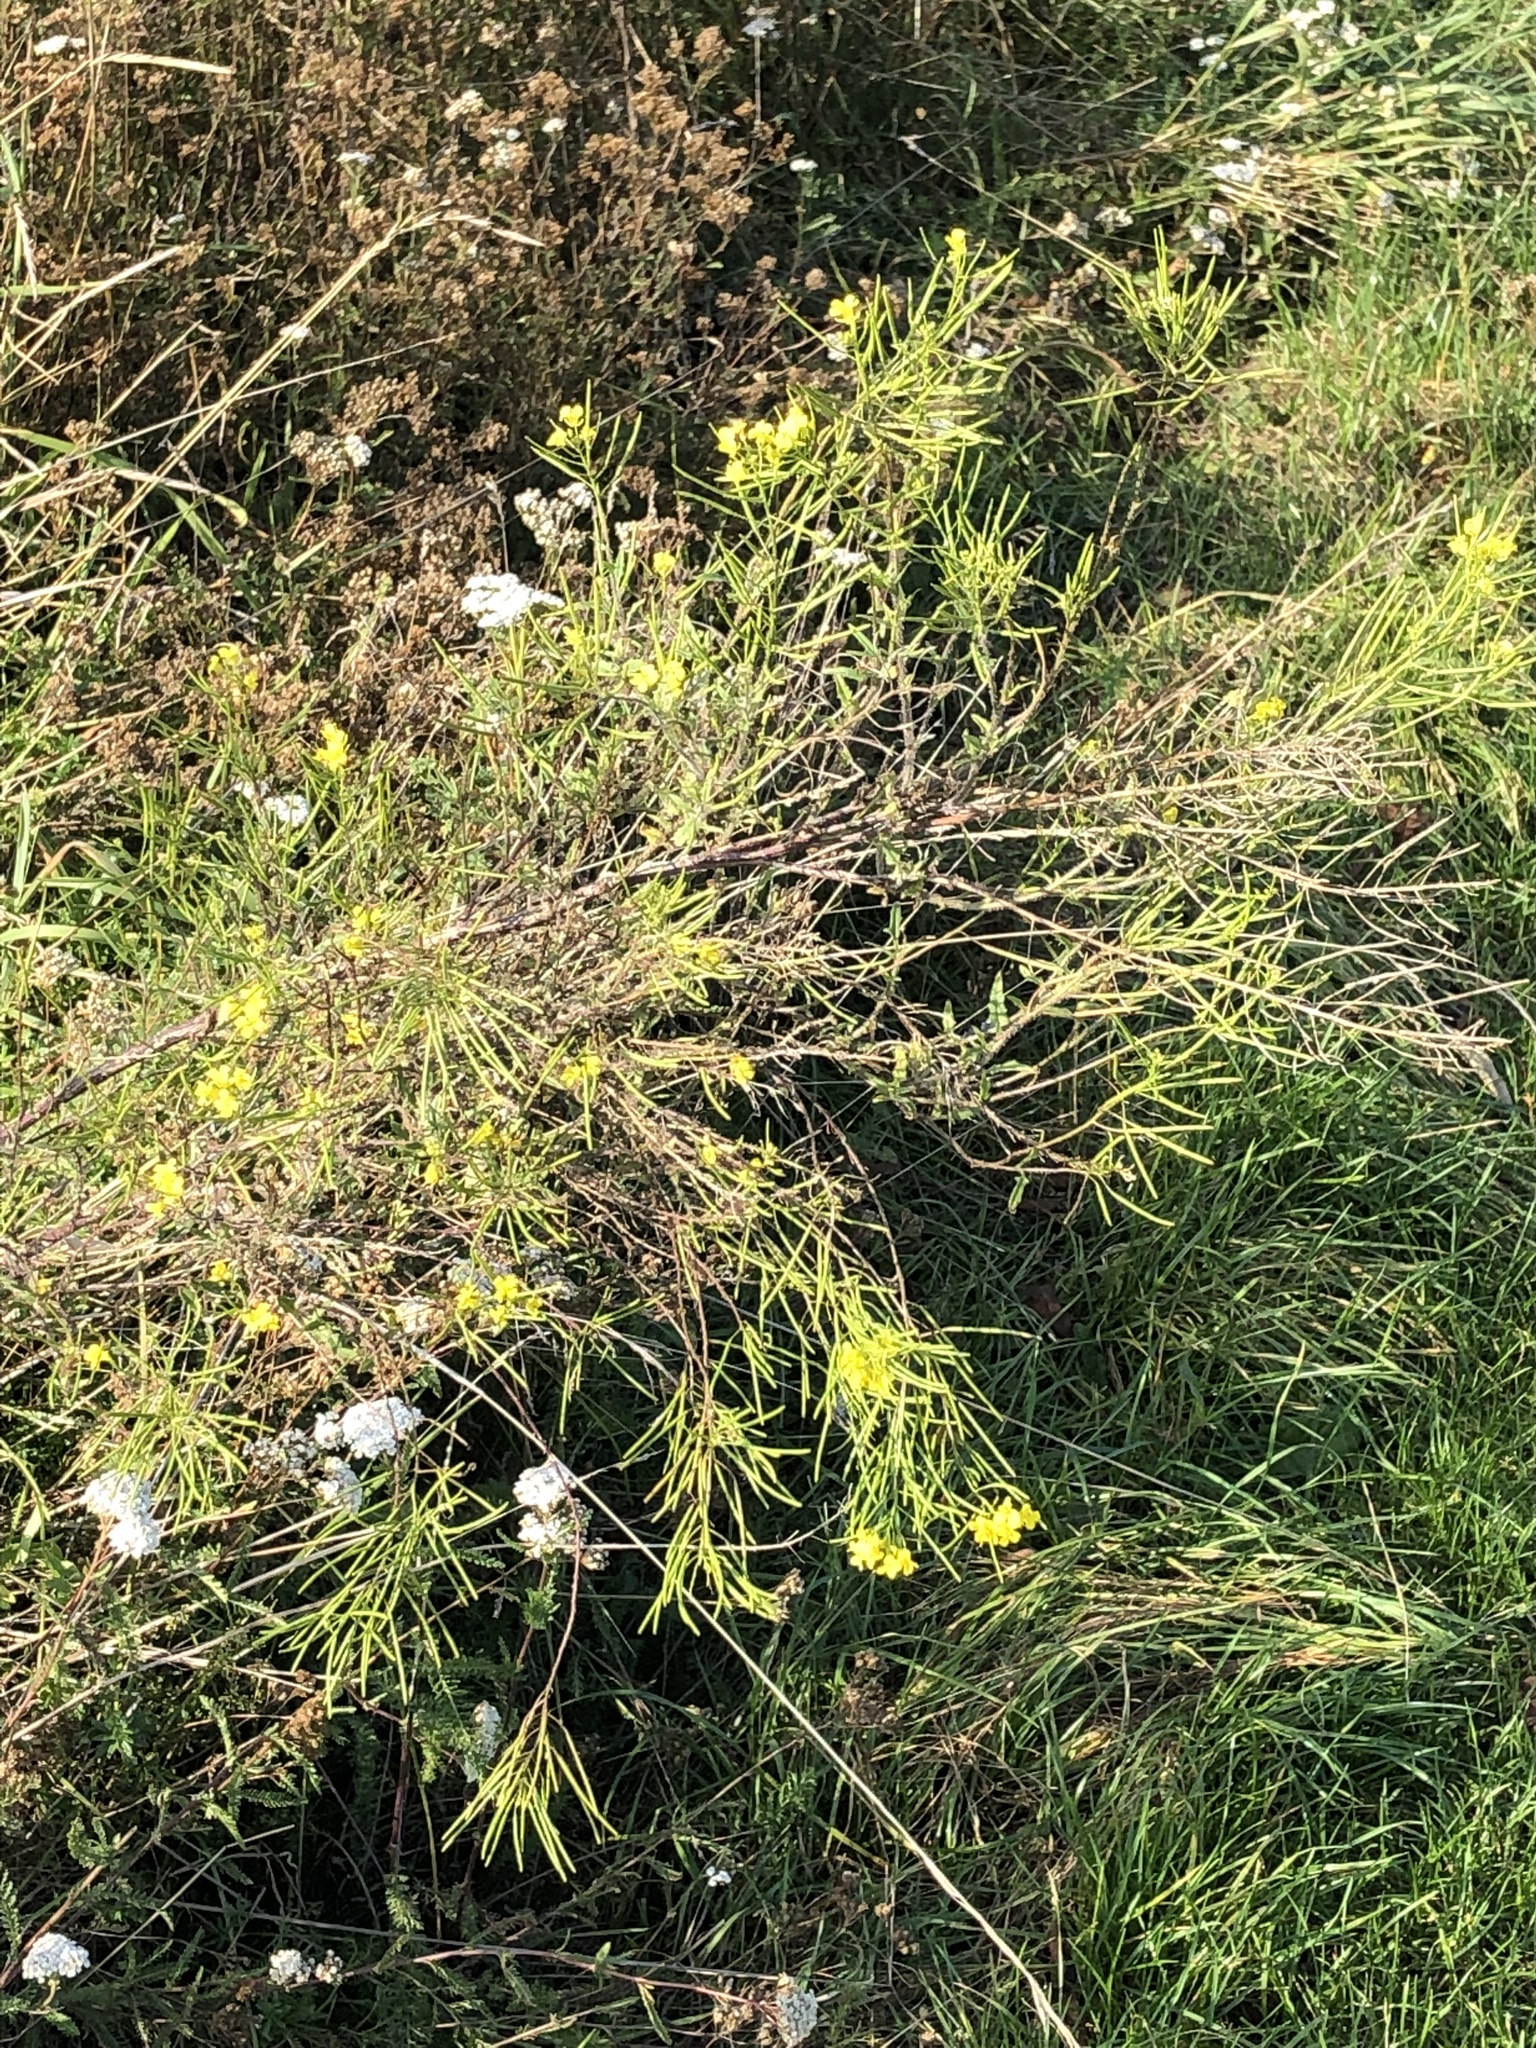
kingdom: Plantae
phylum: Tracheophyta
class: Magnoliopsida
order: Brassicales
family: Brassicaceae
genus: Sisymbrium
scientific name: Sisymbrium loeselii
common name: False london-rocket
